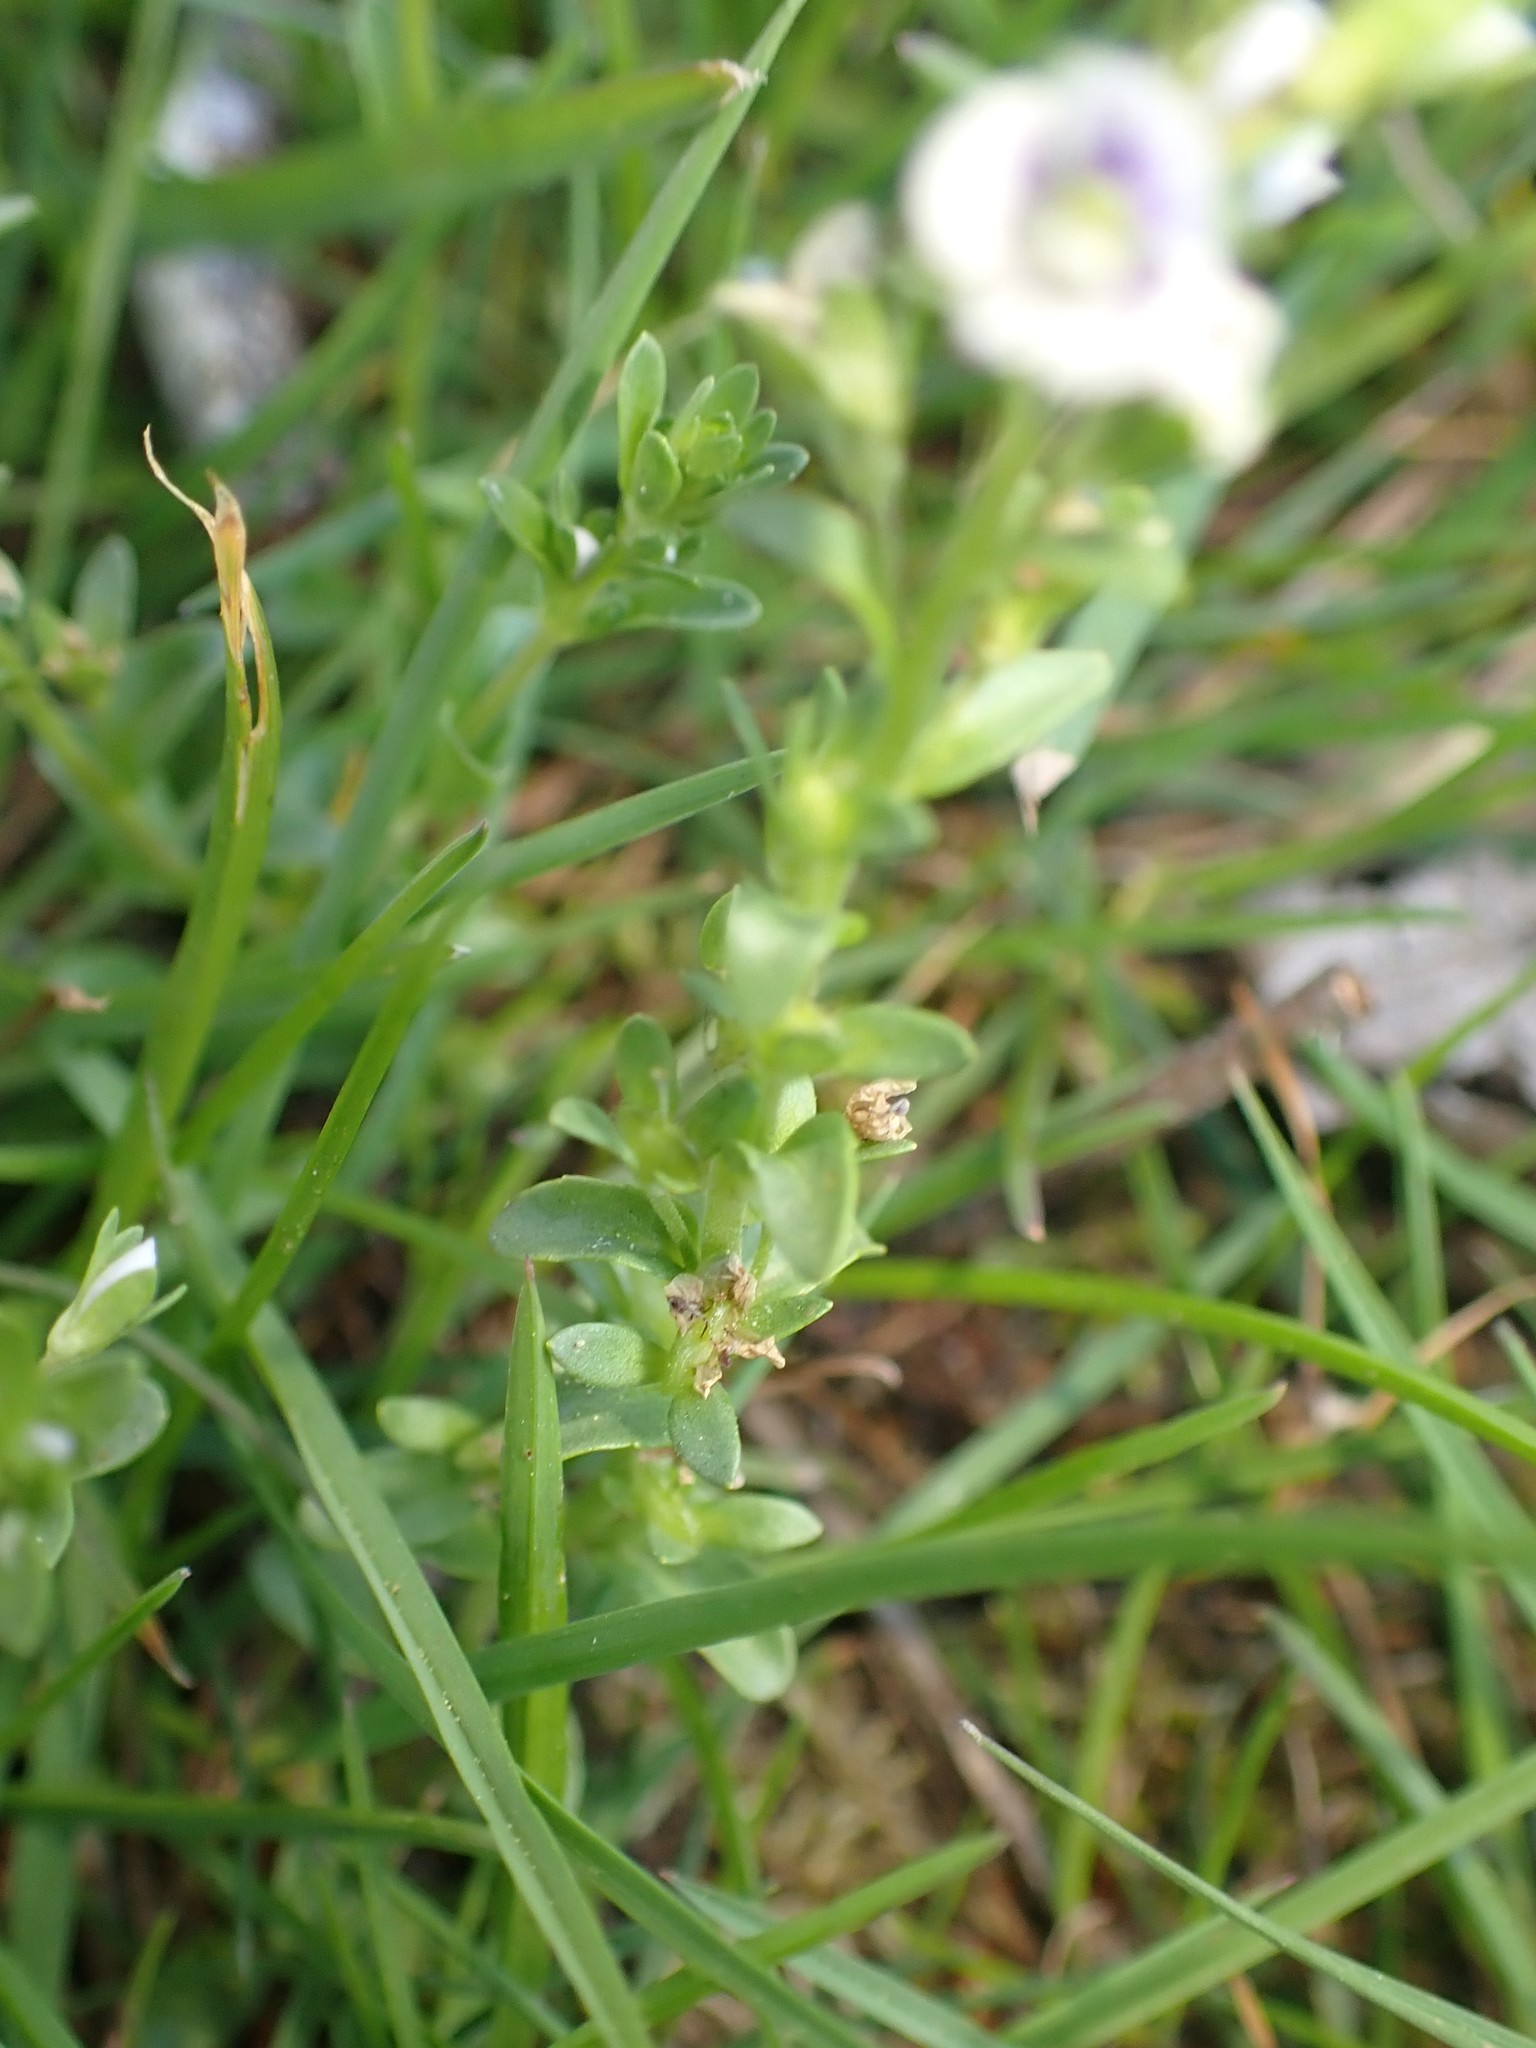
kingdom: Plantae
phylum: Tracheophyta
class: Magnoliopsida
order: Lamiales
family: Plantaginaceae
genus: Veronica
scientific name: Veronica serpyllifolia
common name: Thyme-leaved speedwell
